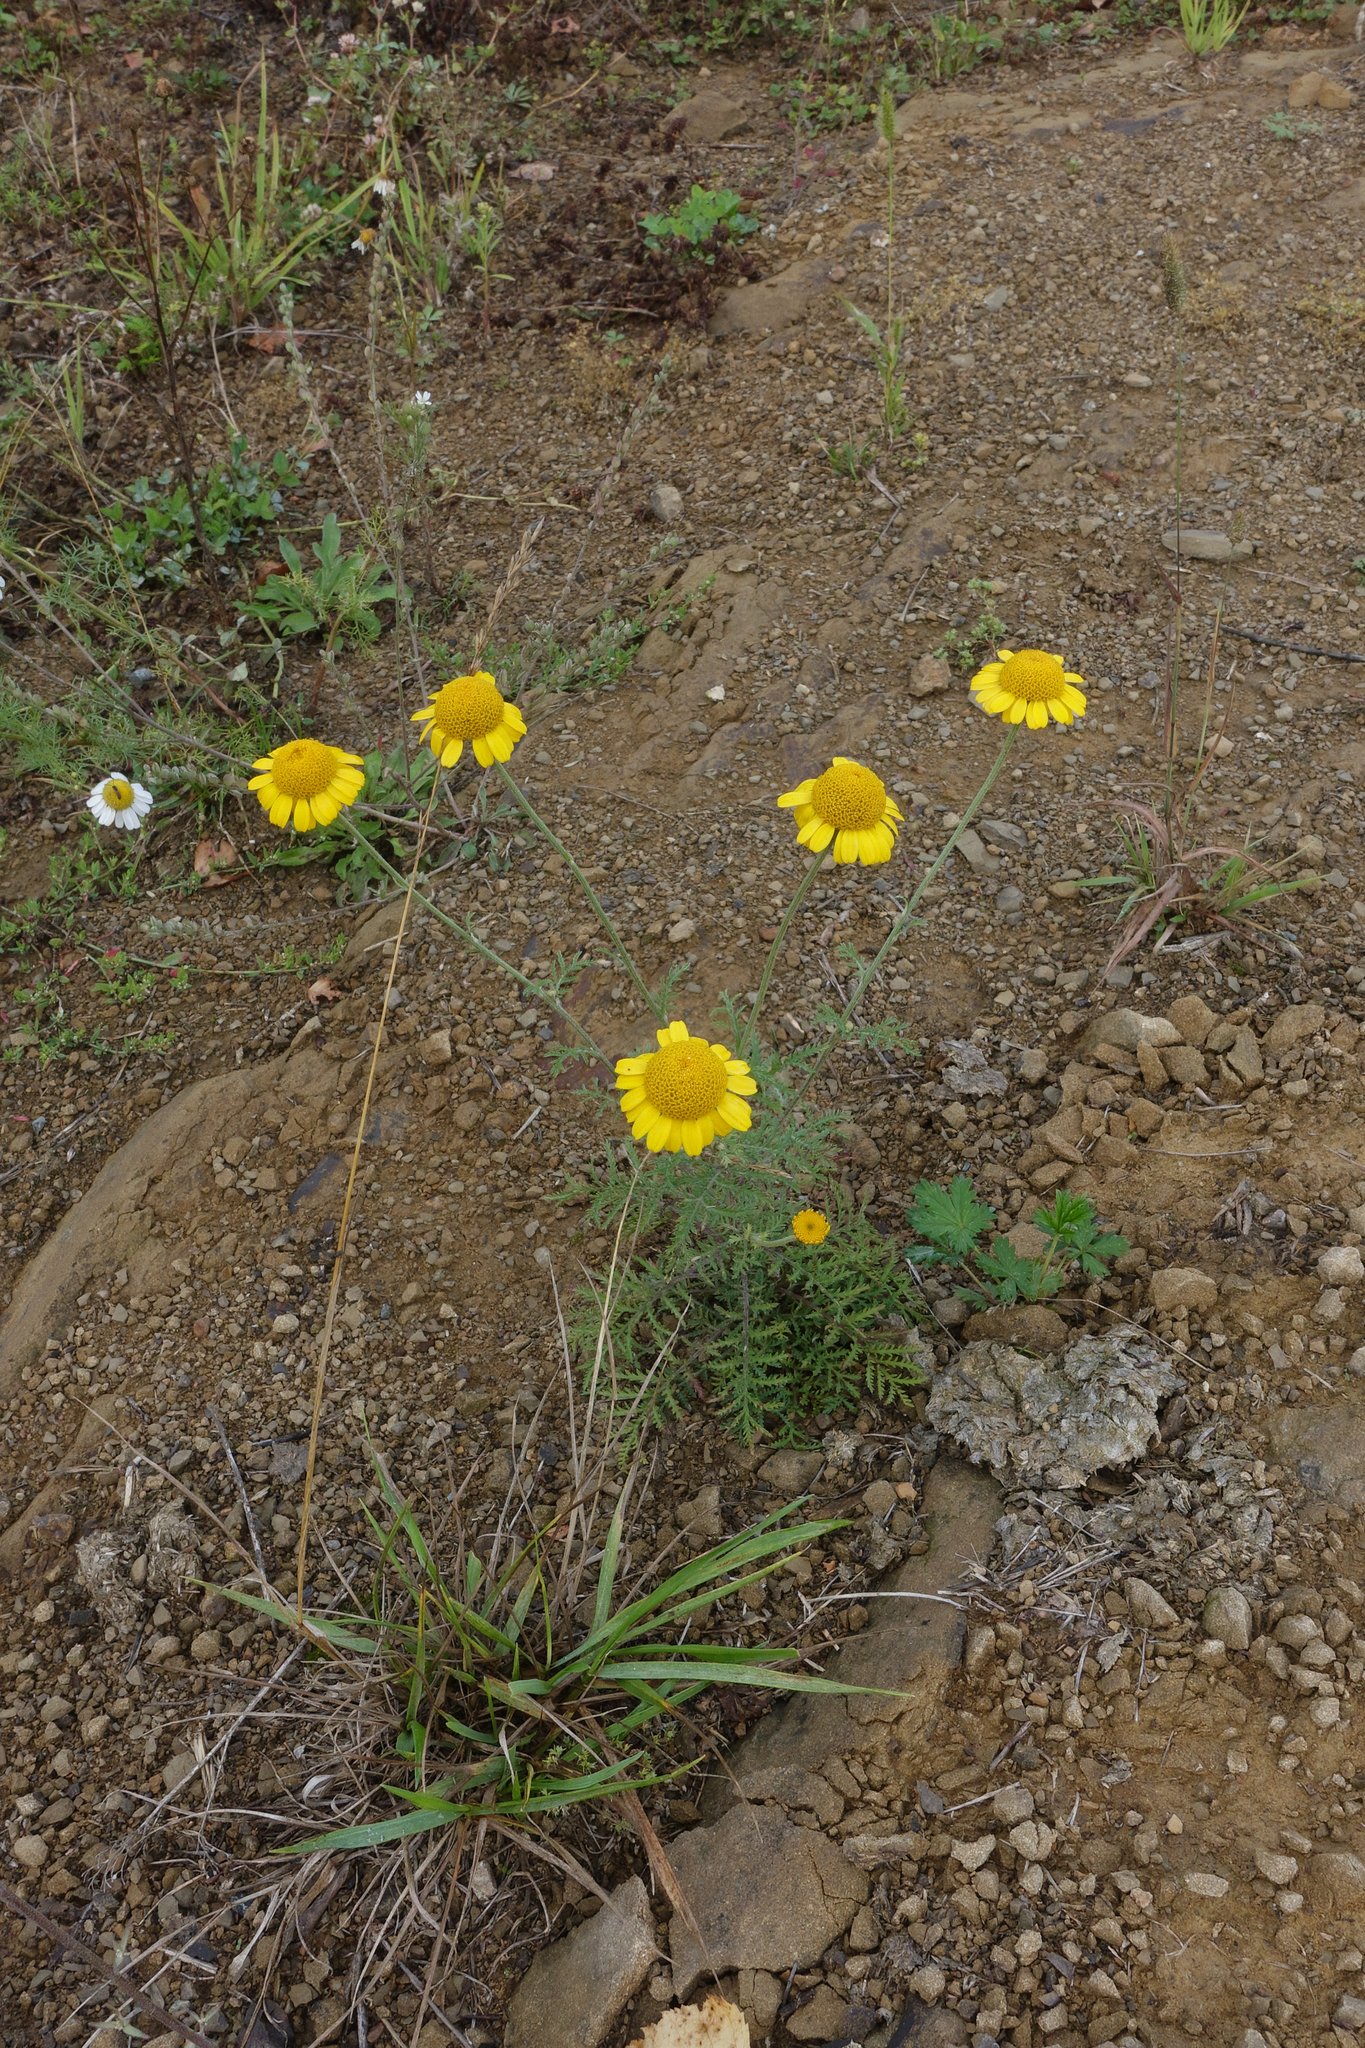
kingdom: Plantae
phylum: Tracheophyta
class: Magnoliopsida
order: Asterales
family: Asteraceae
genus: Cota
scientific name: Cota tinctoria
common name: Golden chamomile
